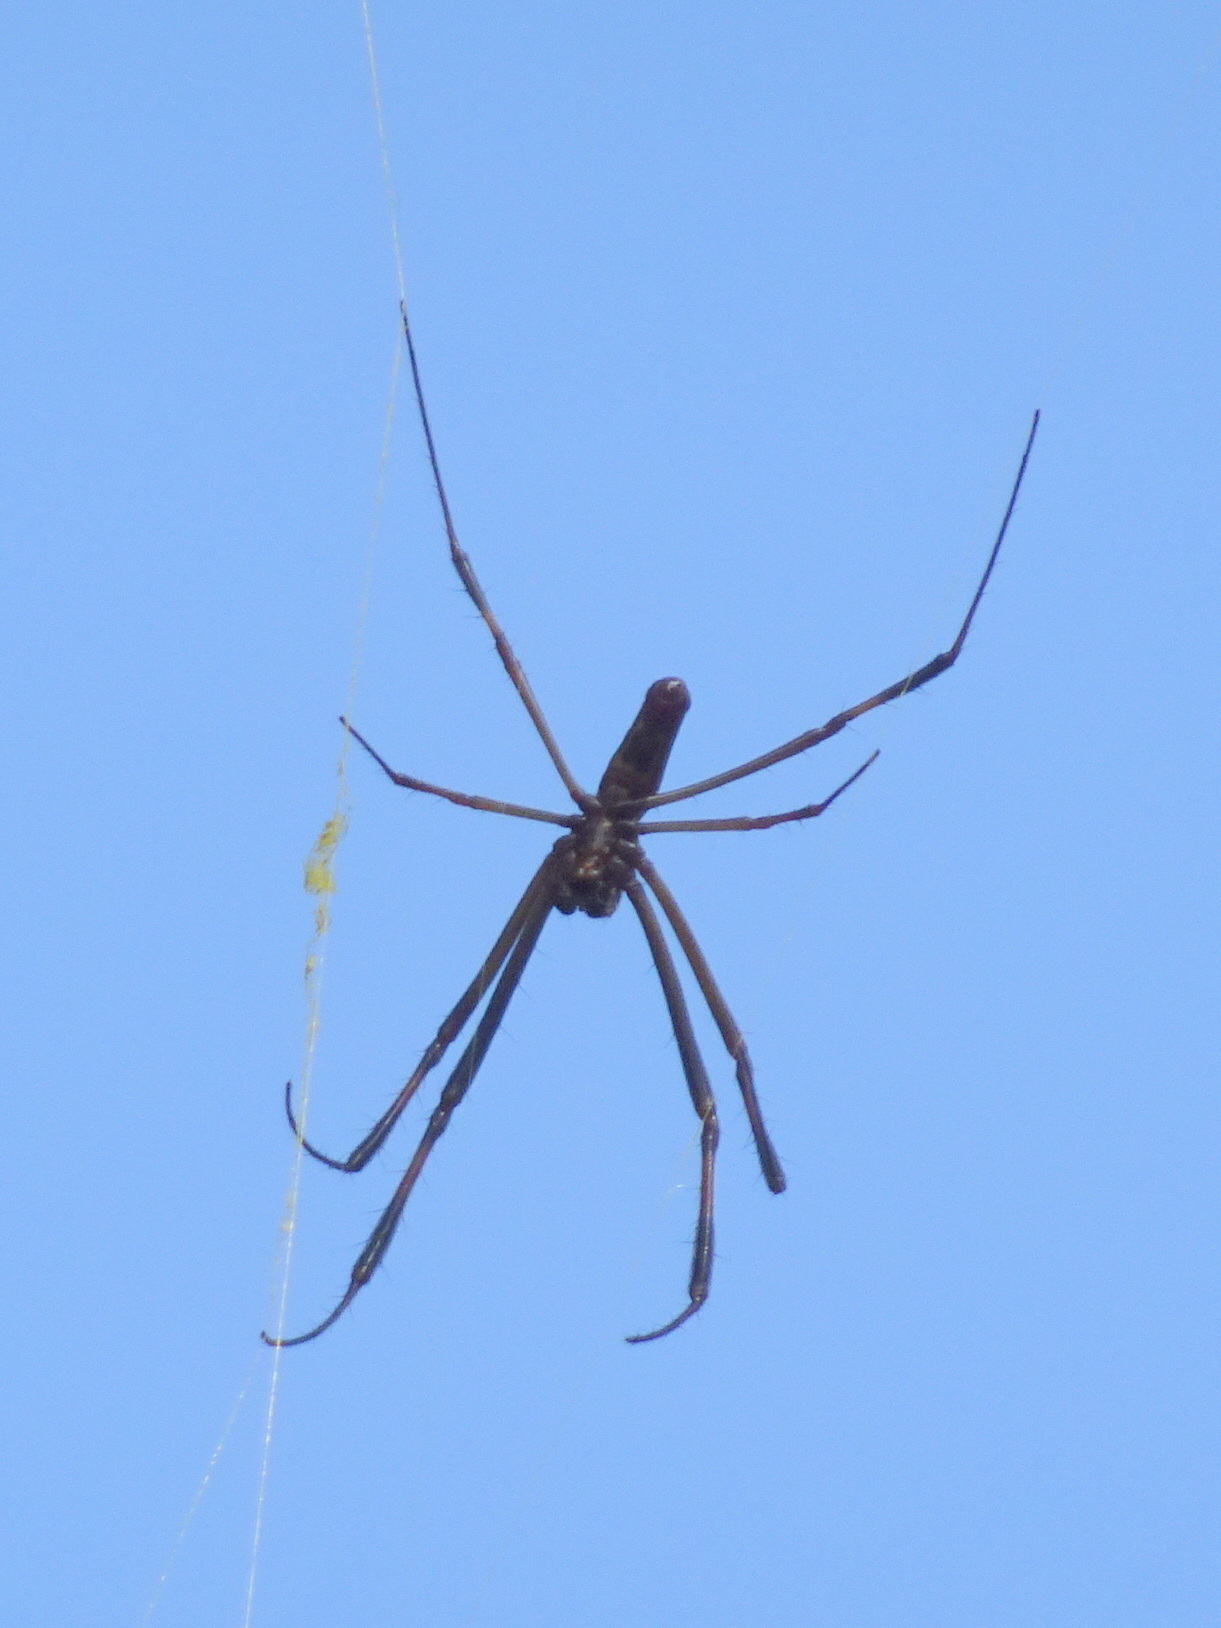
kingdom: Animalia
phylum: Arthropoda
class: Arachnida
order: Araneae
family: Araneidae
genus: Trichonephila
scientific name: Trichonephila clavipes
